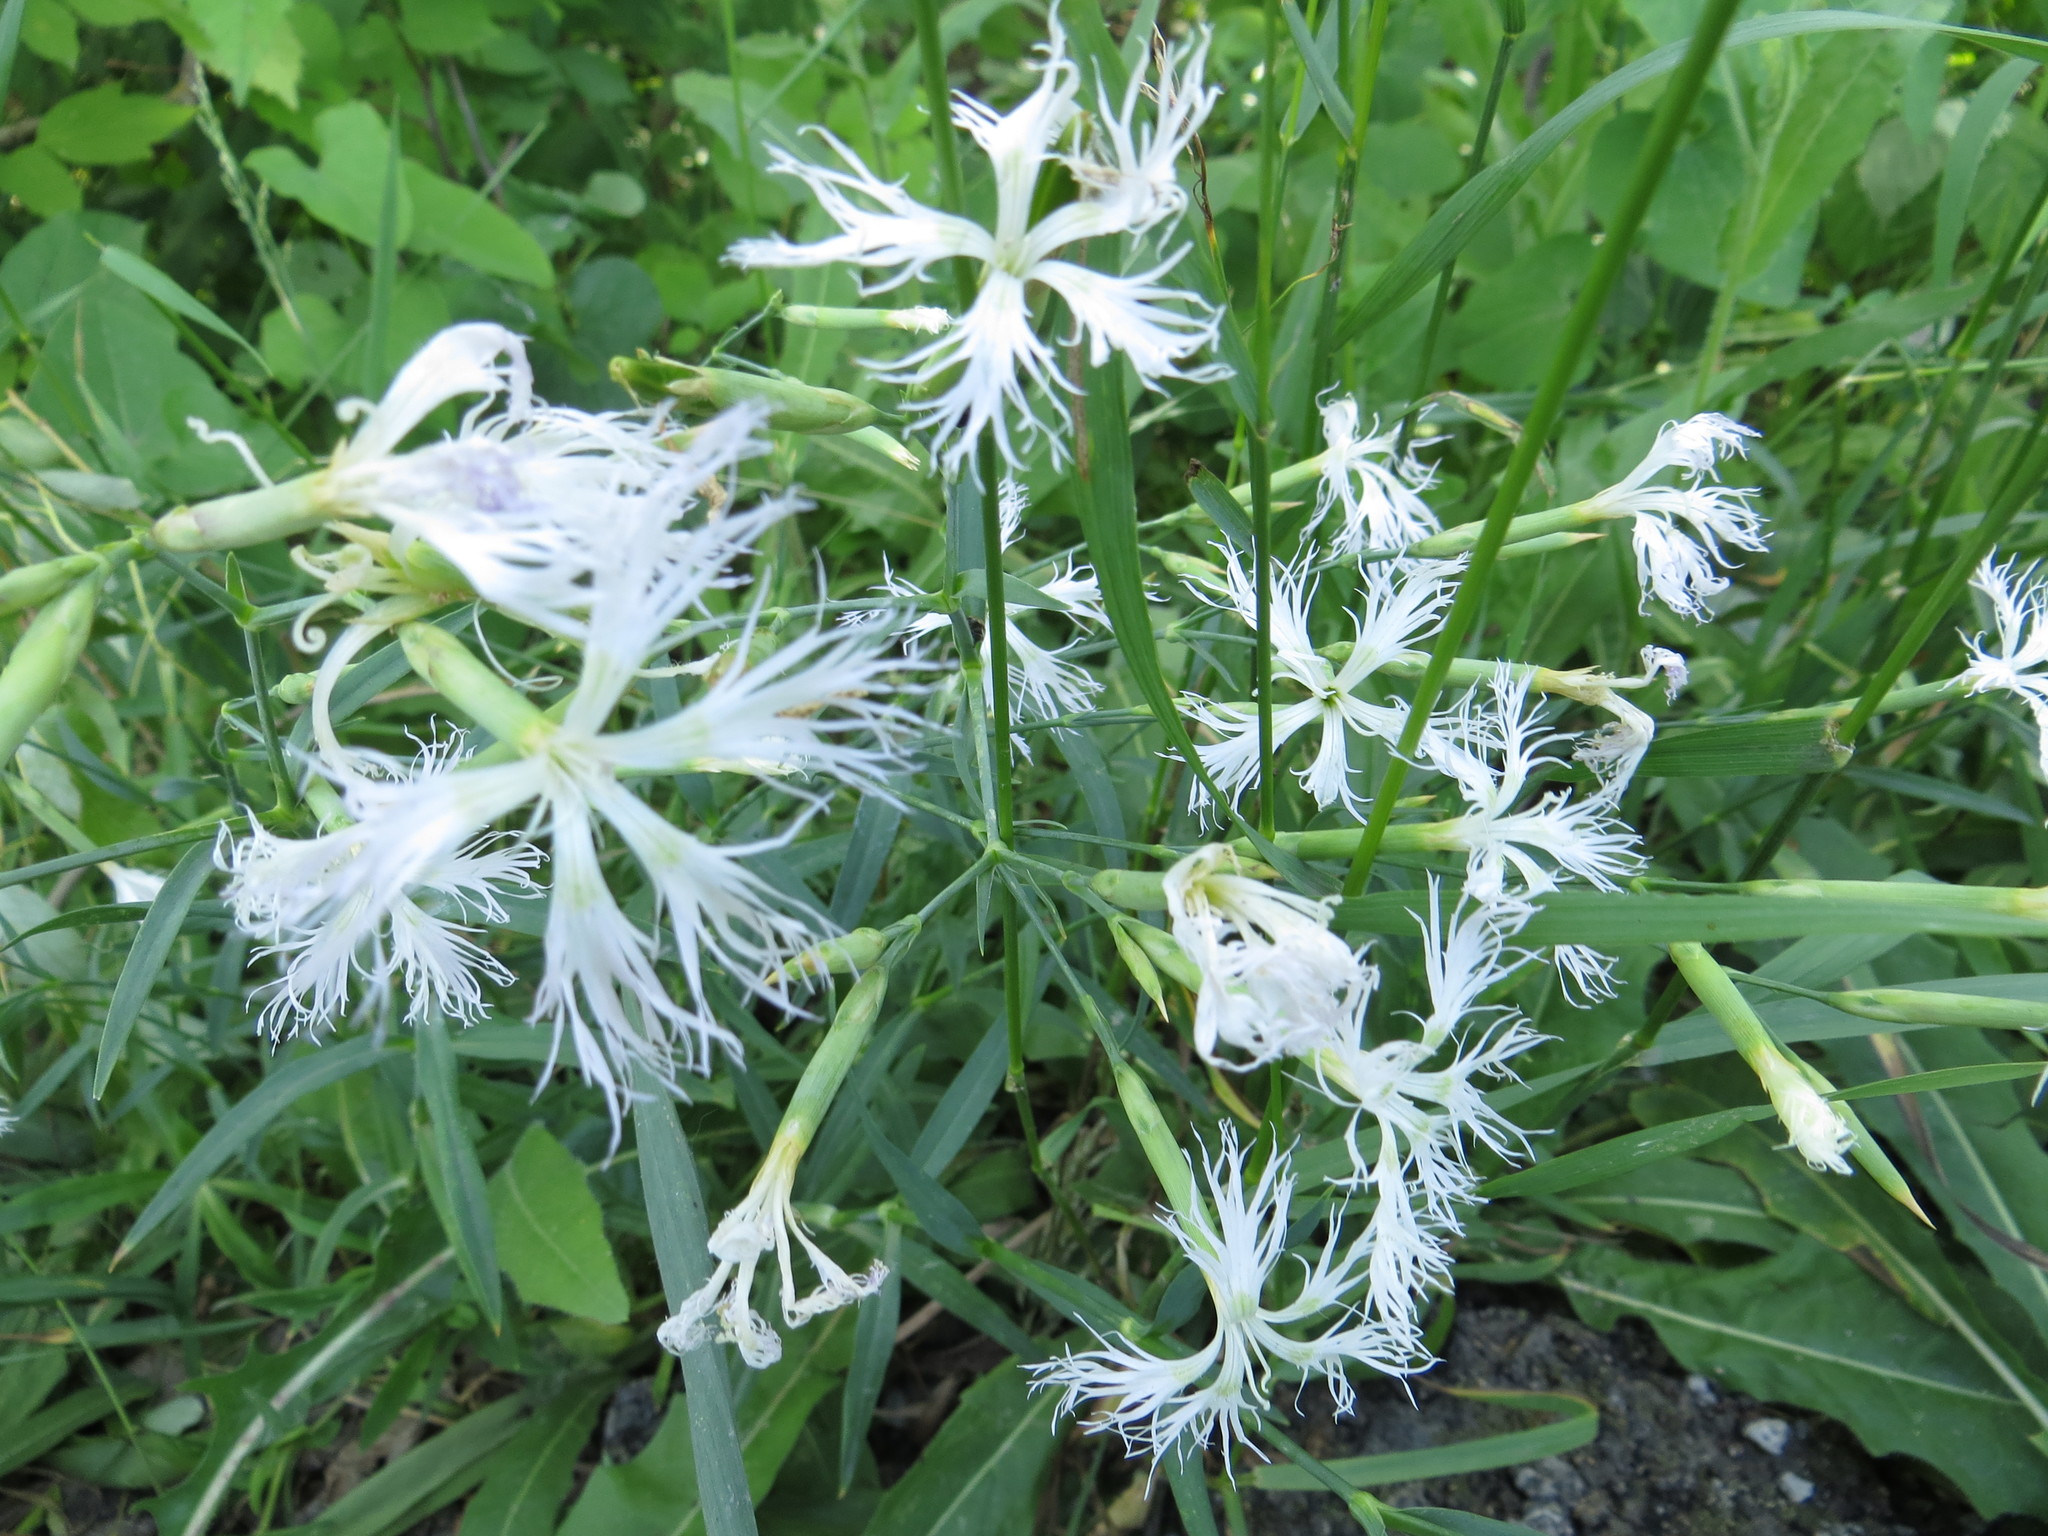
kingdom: Plantae
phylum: Tracheophyta
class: Magnoliopsida
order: Caryophyllales
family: Caryophyllaceae
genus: Dianthus
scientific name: Dianthus superbus
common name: Fringed pink
